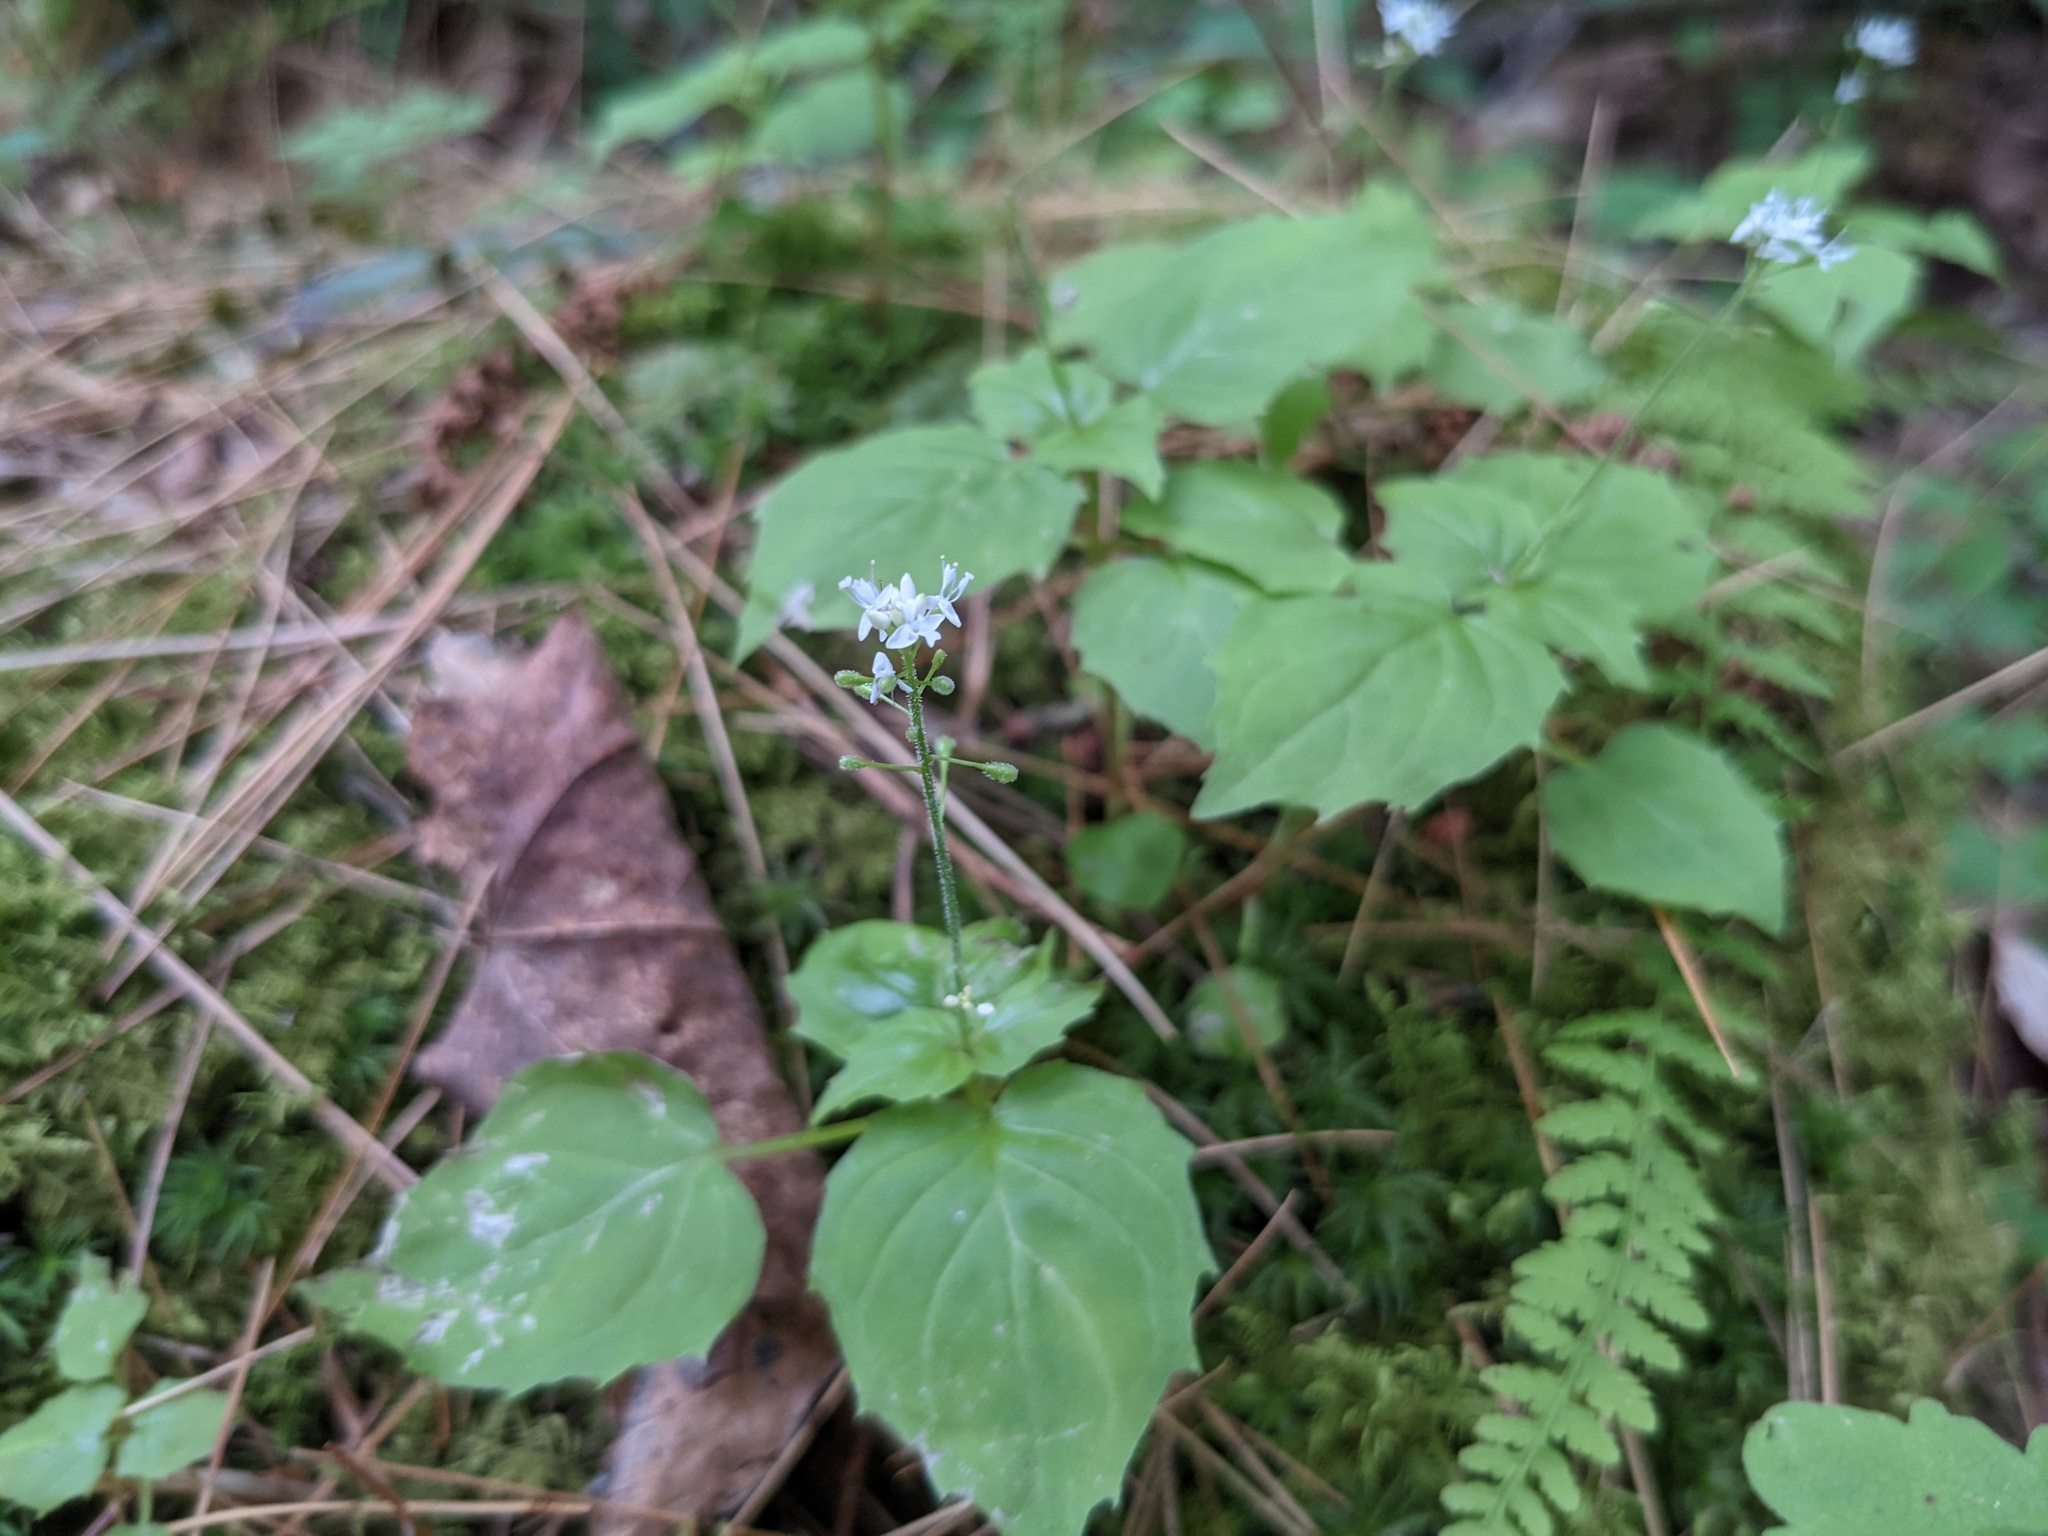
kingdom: Plantae
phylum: Tracheophyta
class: Magnoliopsida
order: Myrtales
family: Onagraceae
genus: Circaea
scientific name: Circaea alpina
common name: Alpine enchanter's-nightshade
